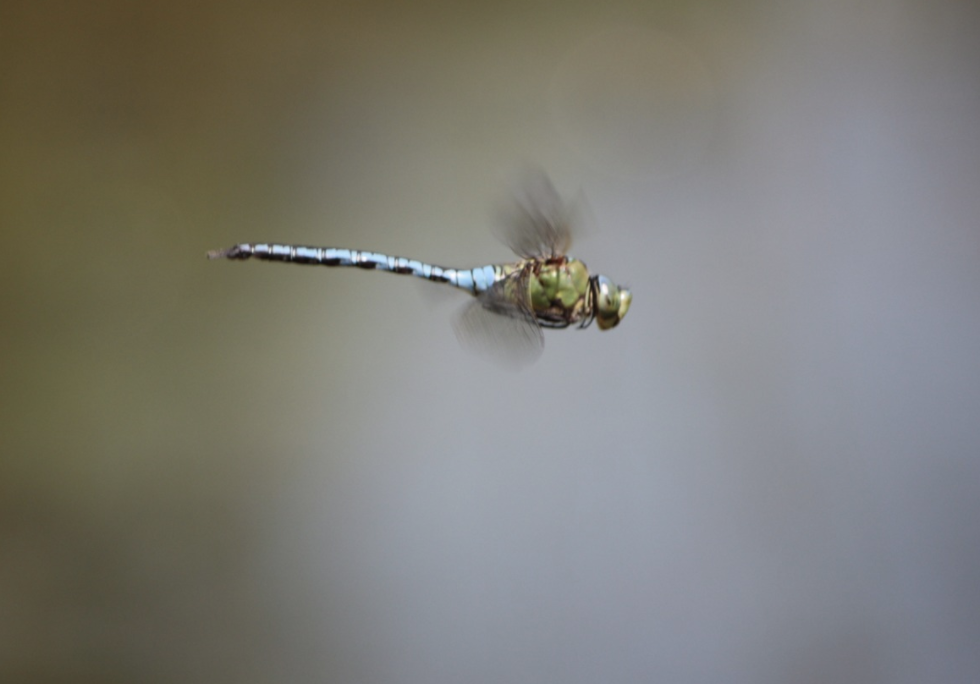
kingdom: Animalia
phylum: Arthropoda
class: Insecta
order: Odonata
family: Aeshnidae
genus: Anax
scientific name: Anax imperator
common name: Emperor dragonfly
